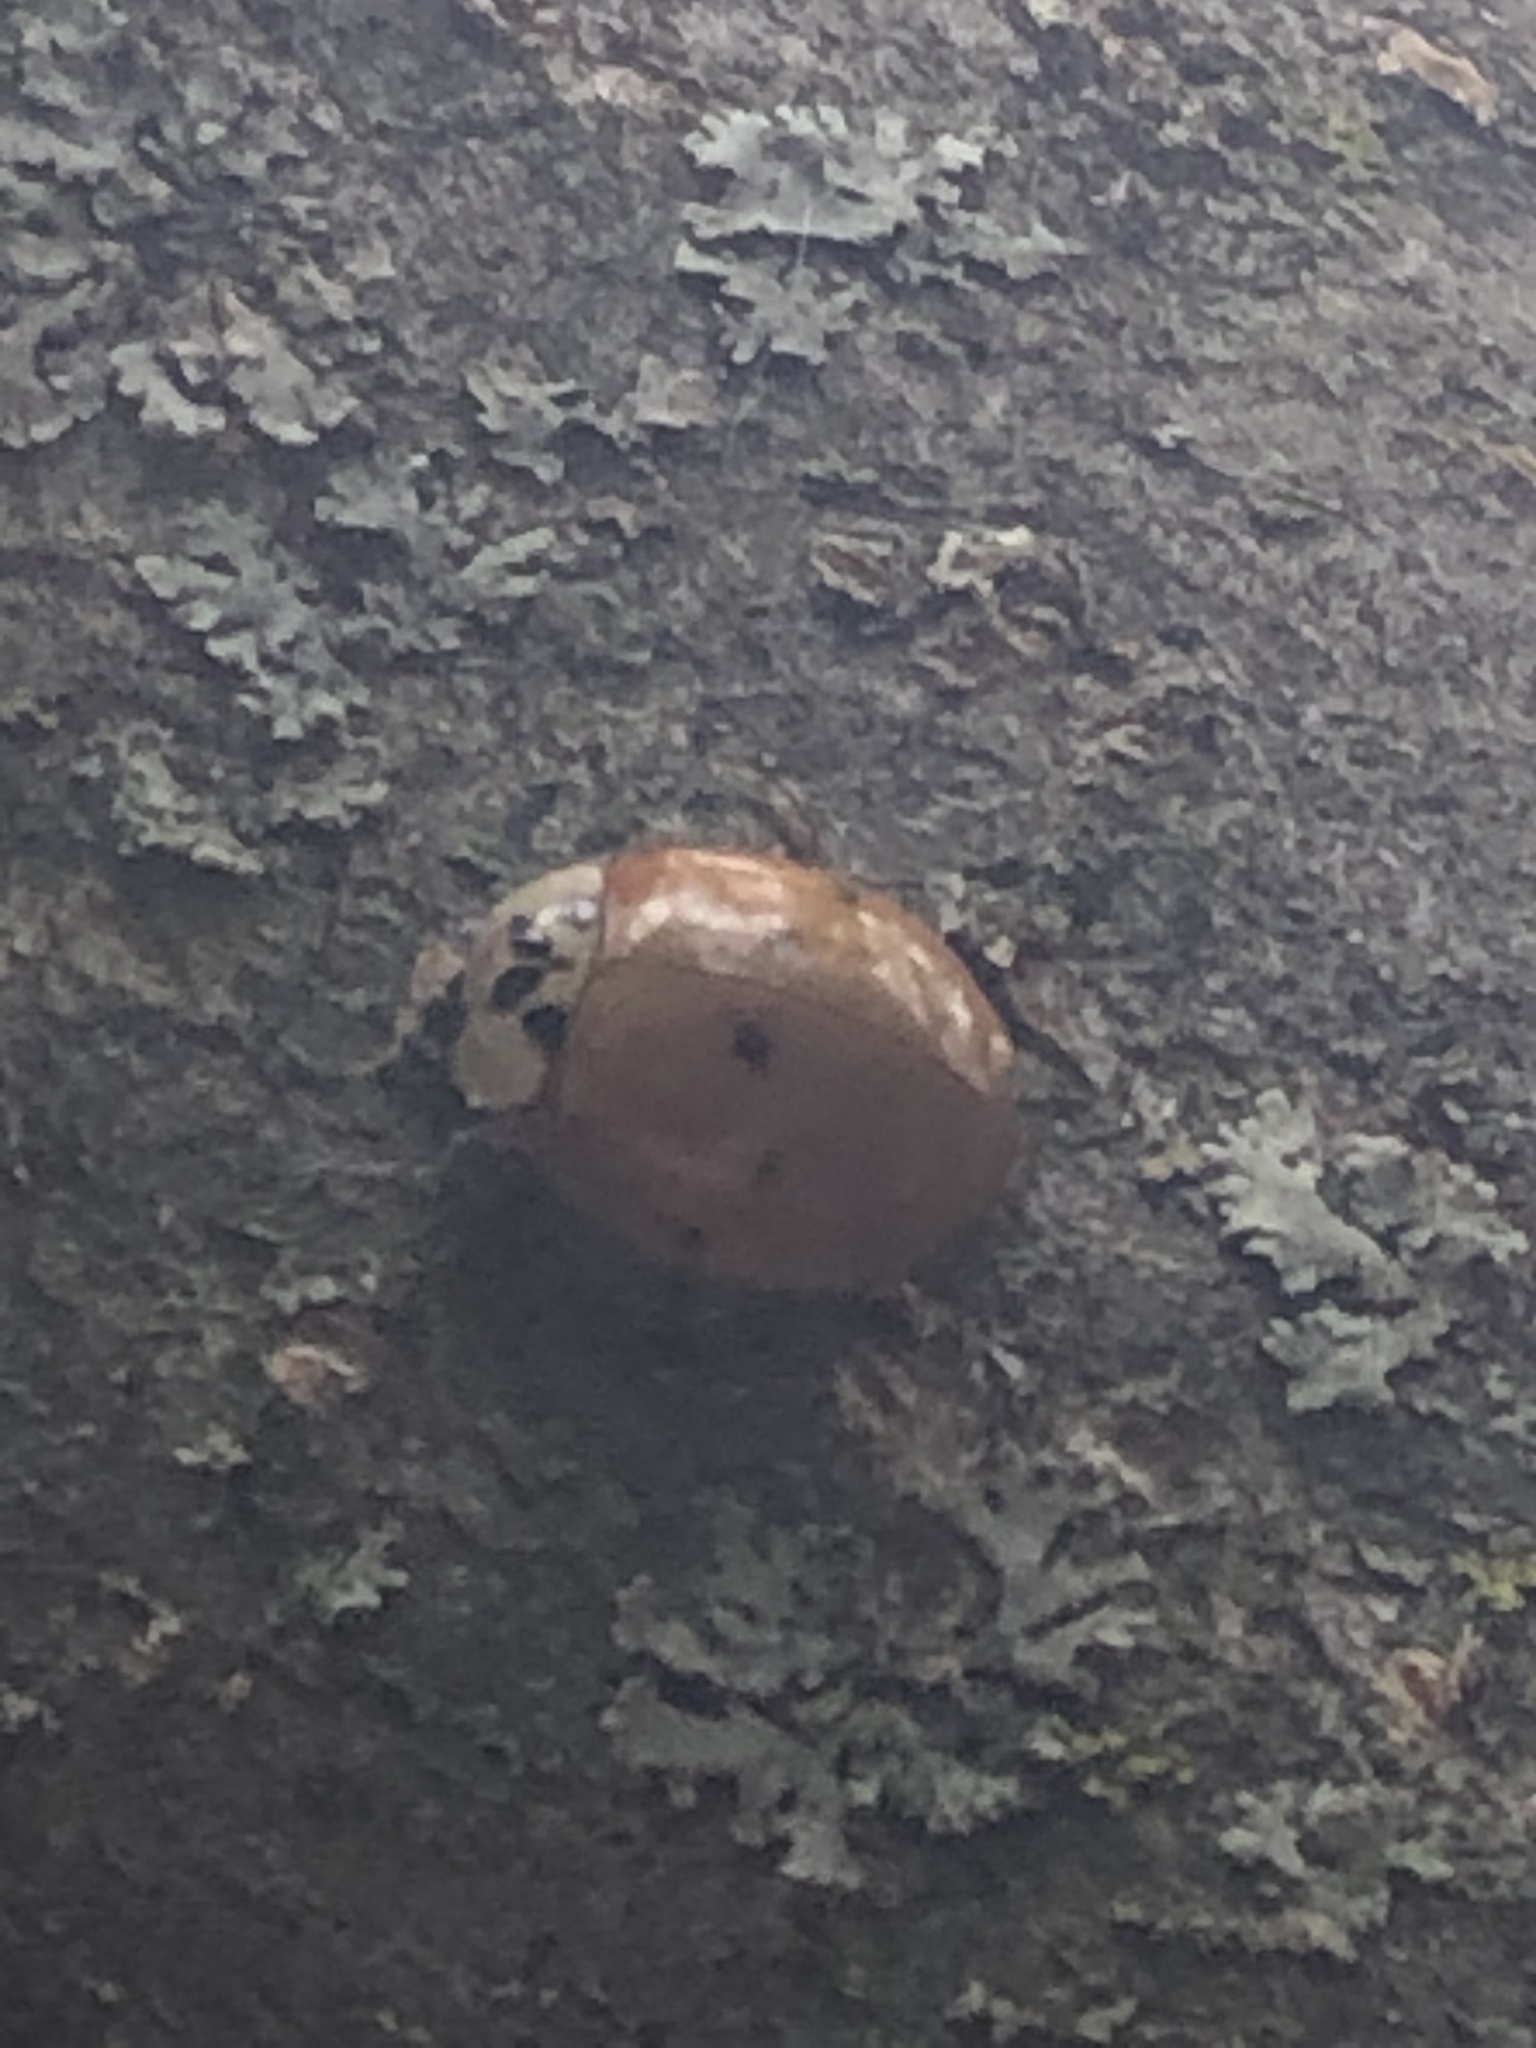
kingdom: Animalia
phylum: Arthropoda
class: Insecta
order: Coleoptera
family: Coccinellidae
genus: Harmonia
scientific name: Harmonia axyridis
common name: Harlequin ladybird
